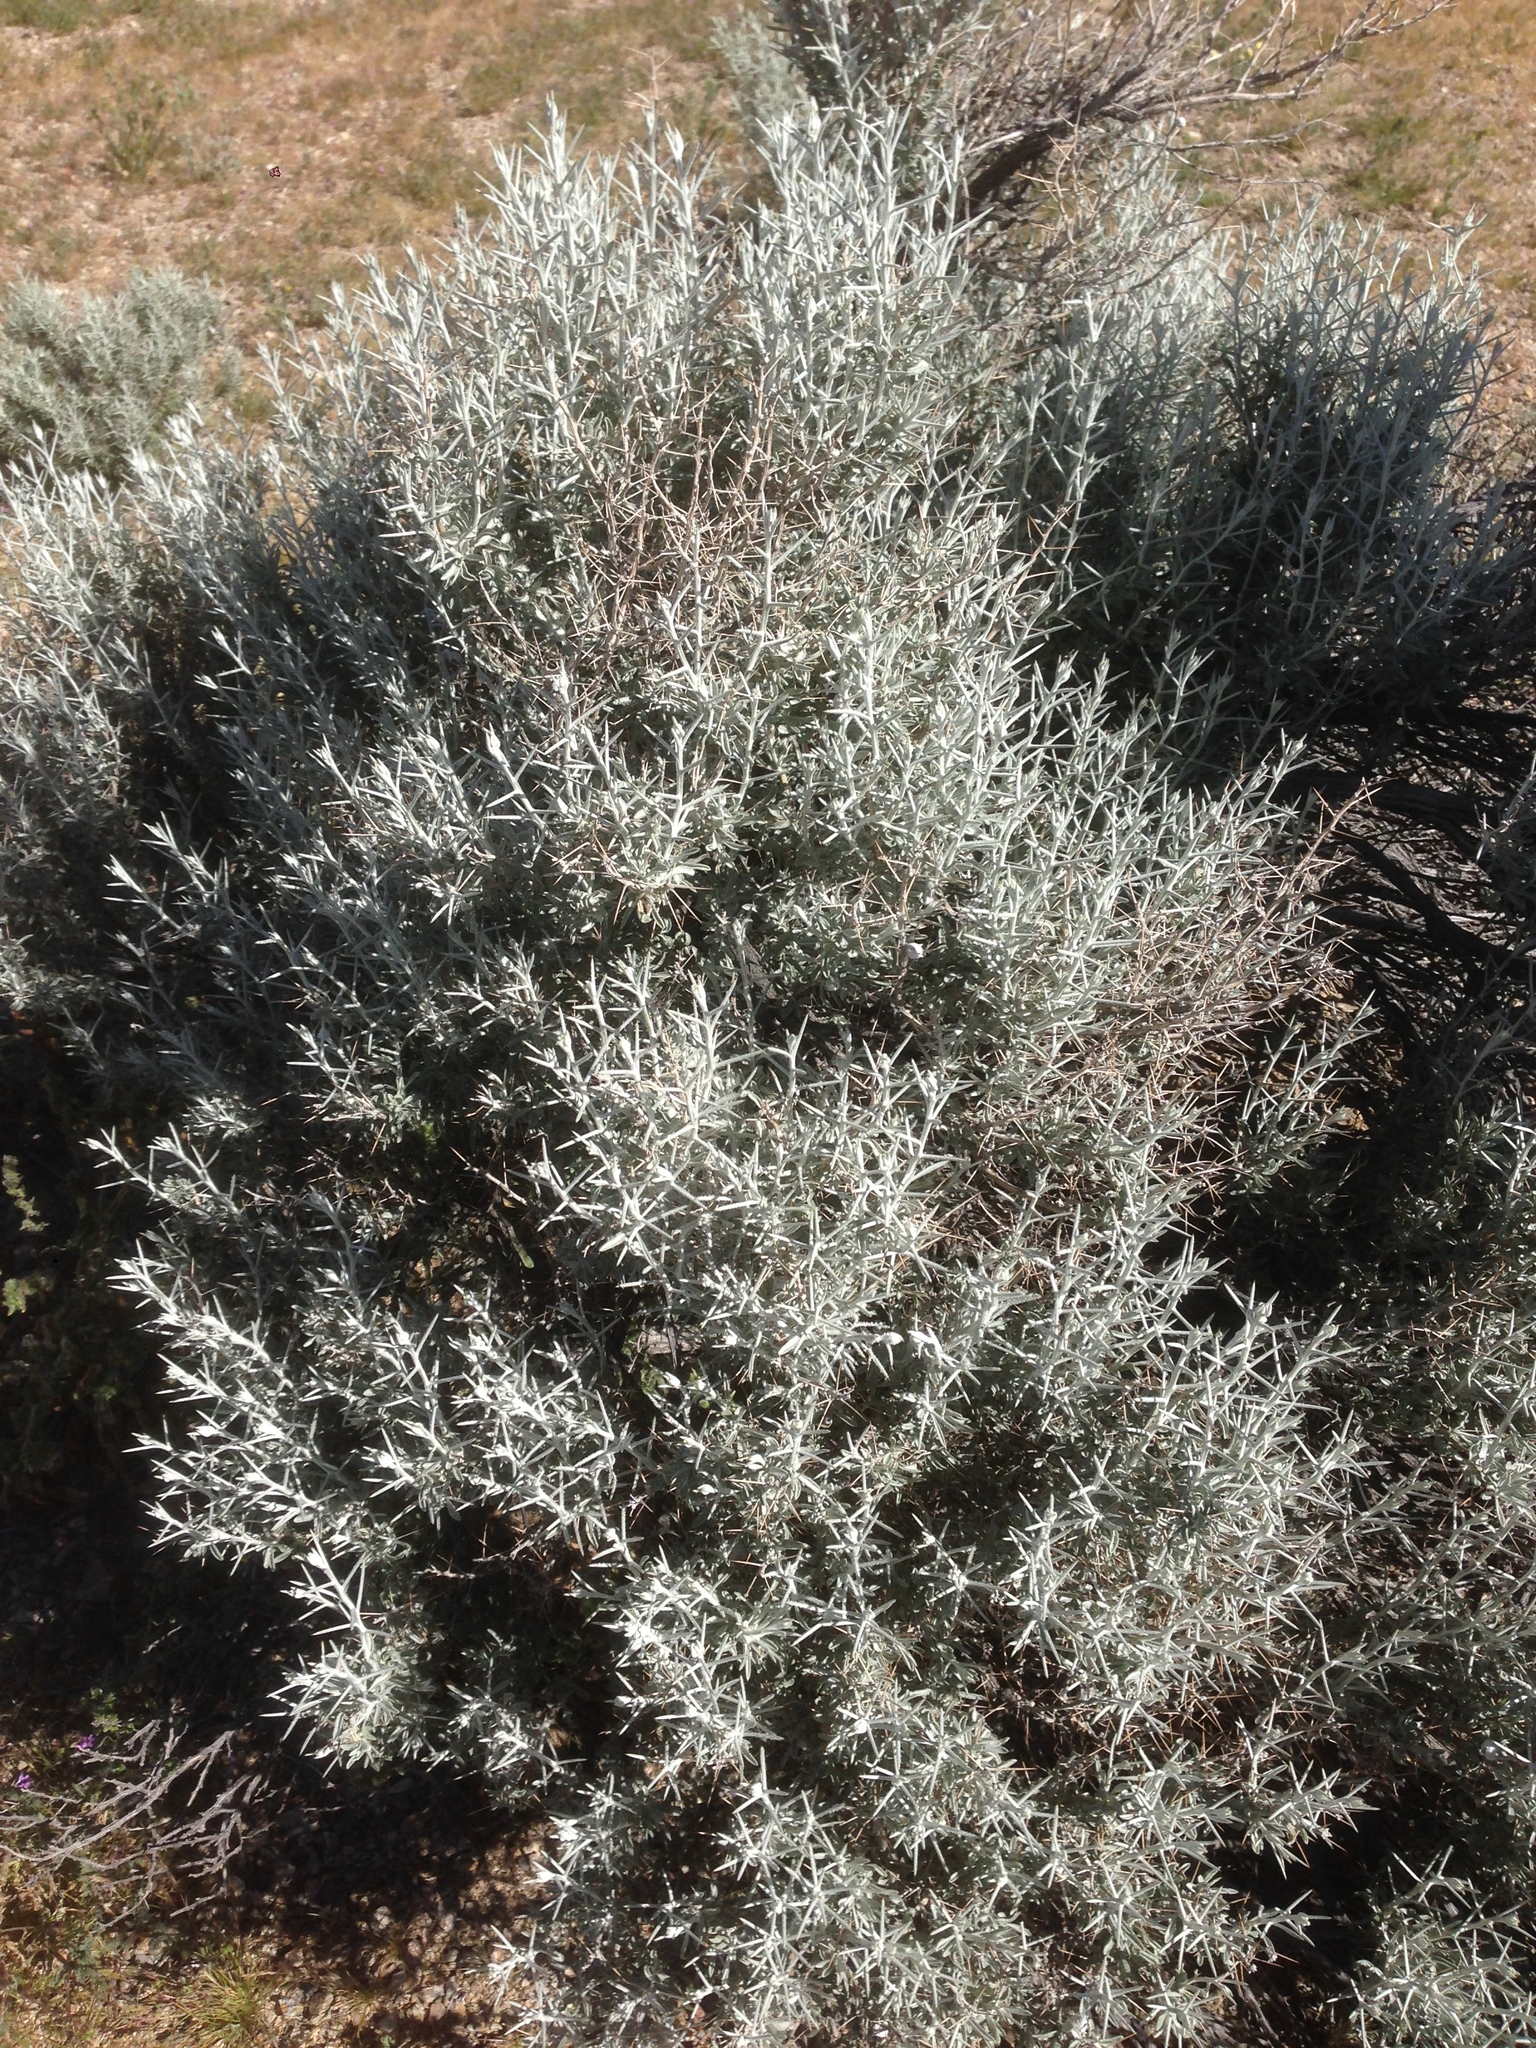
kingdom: Plantae
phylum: Tracheophyta
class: Magnoliopsida
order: Asterales
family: Asteraceae
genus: Tetradymia
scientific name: Tetradymia stenolepis
